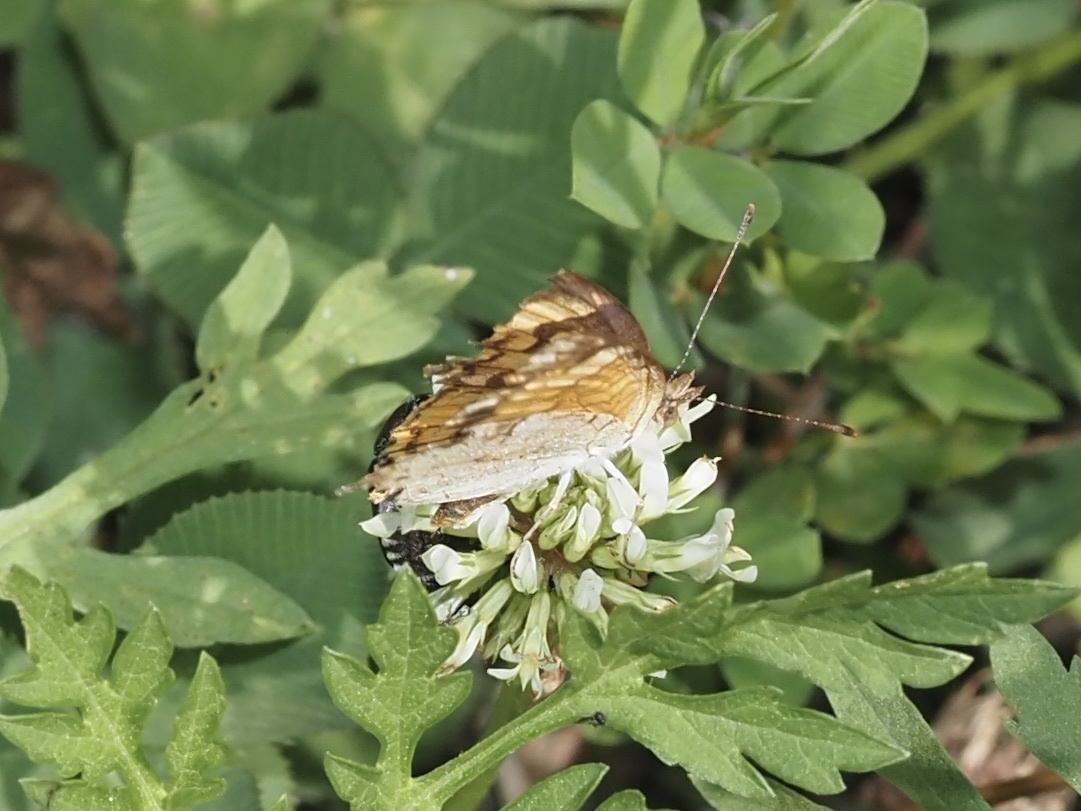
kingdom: Animalia
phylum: Arthropoda
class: Insecta
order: Lepidoptera
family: Nymphalidae
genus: Phyciodes
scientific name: Phyciodes tharos
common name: Pearl crescent
